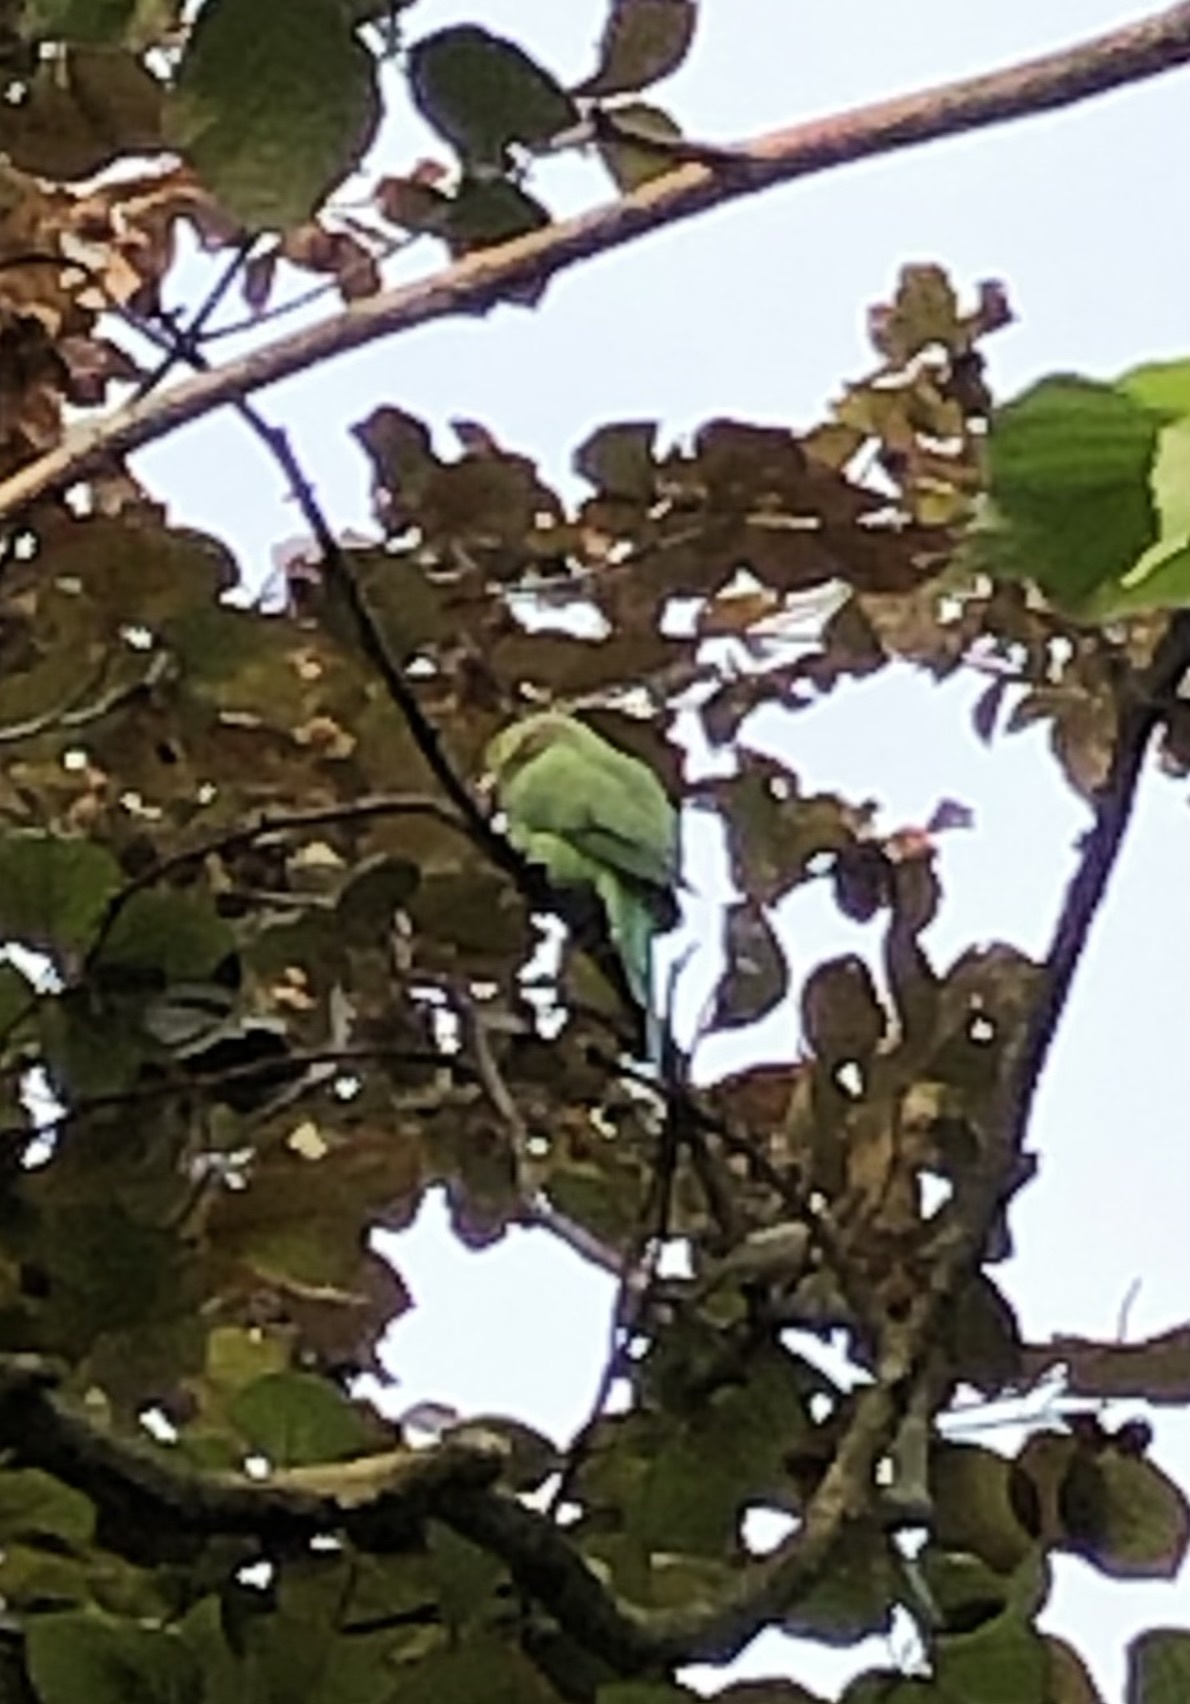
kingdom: Animalia
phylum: Chordata
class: Aves
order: Psittaciformes
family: Psittacidae
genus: Psittacula
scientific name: Psittacula krameri
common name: Rose-ringed parakeet
